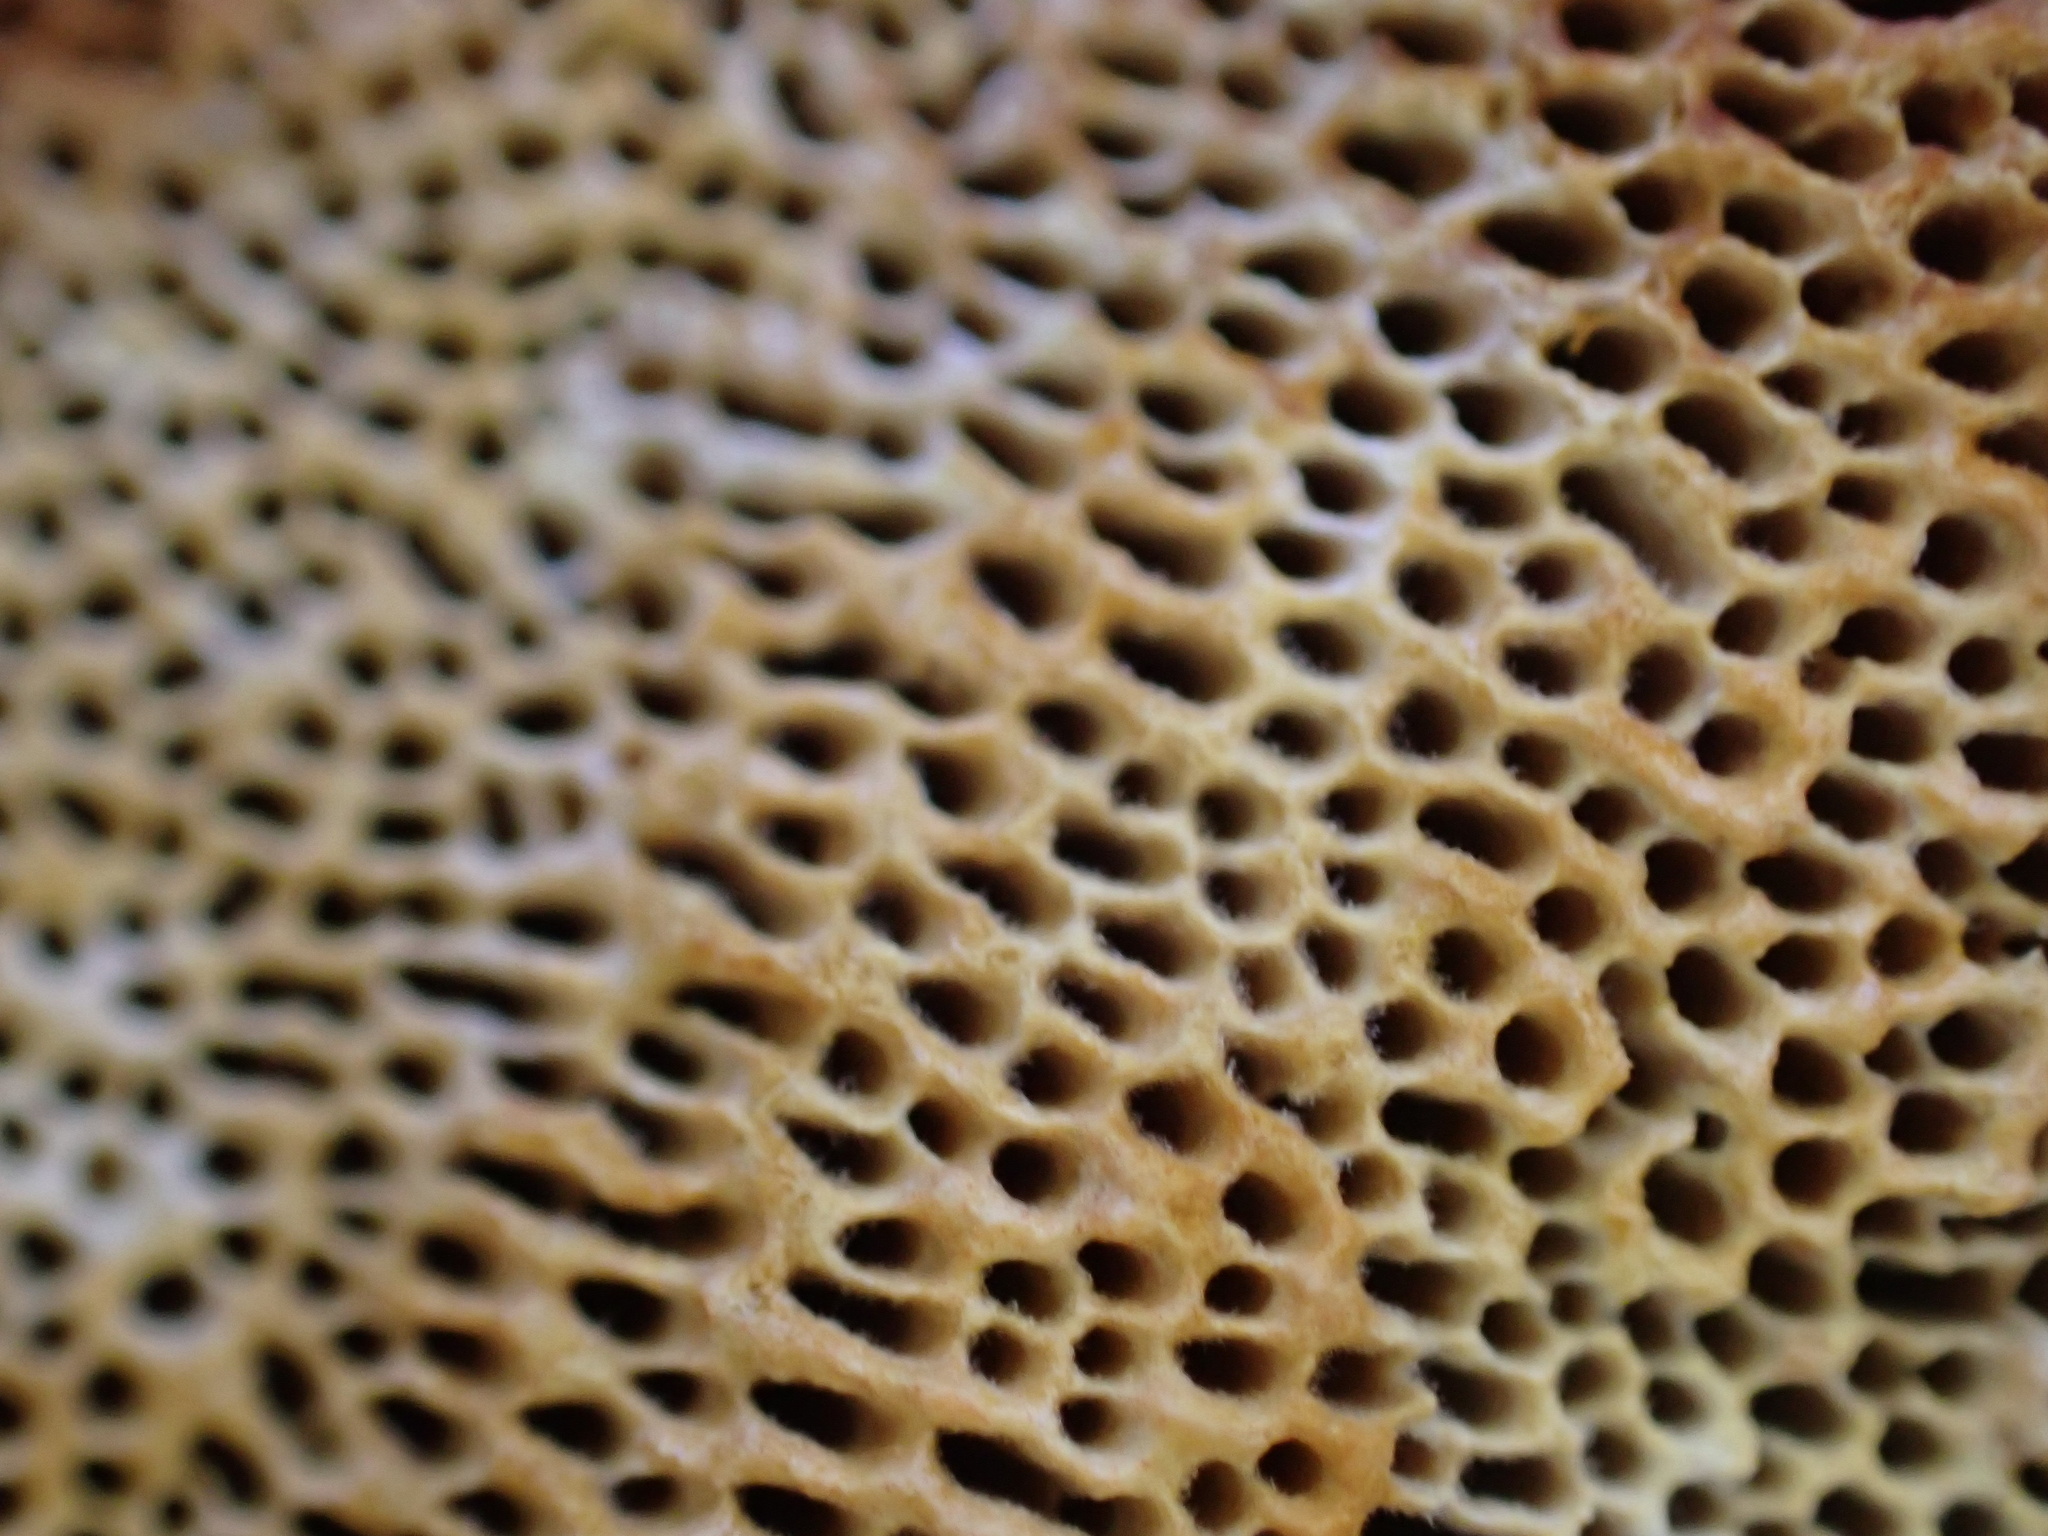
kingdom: Fungi
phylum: Basidiomycota
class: Agaricomycetes
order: Gloeophyllales
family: Gloeophyllaceae
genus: Gloeophyllum
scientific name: Gloeophyllum odoratum
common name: Anise mazegill
